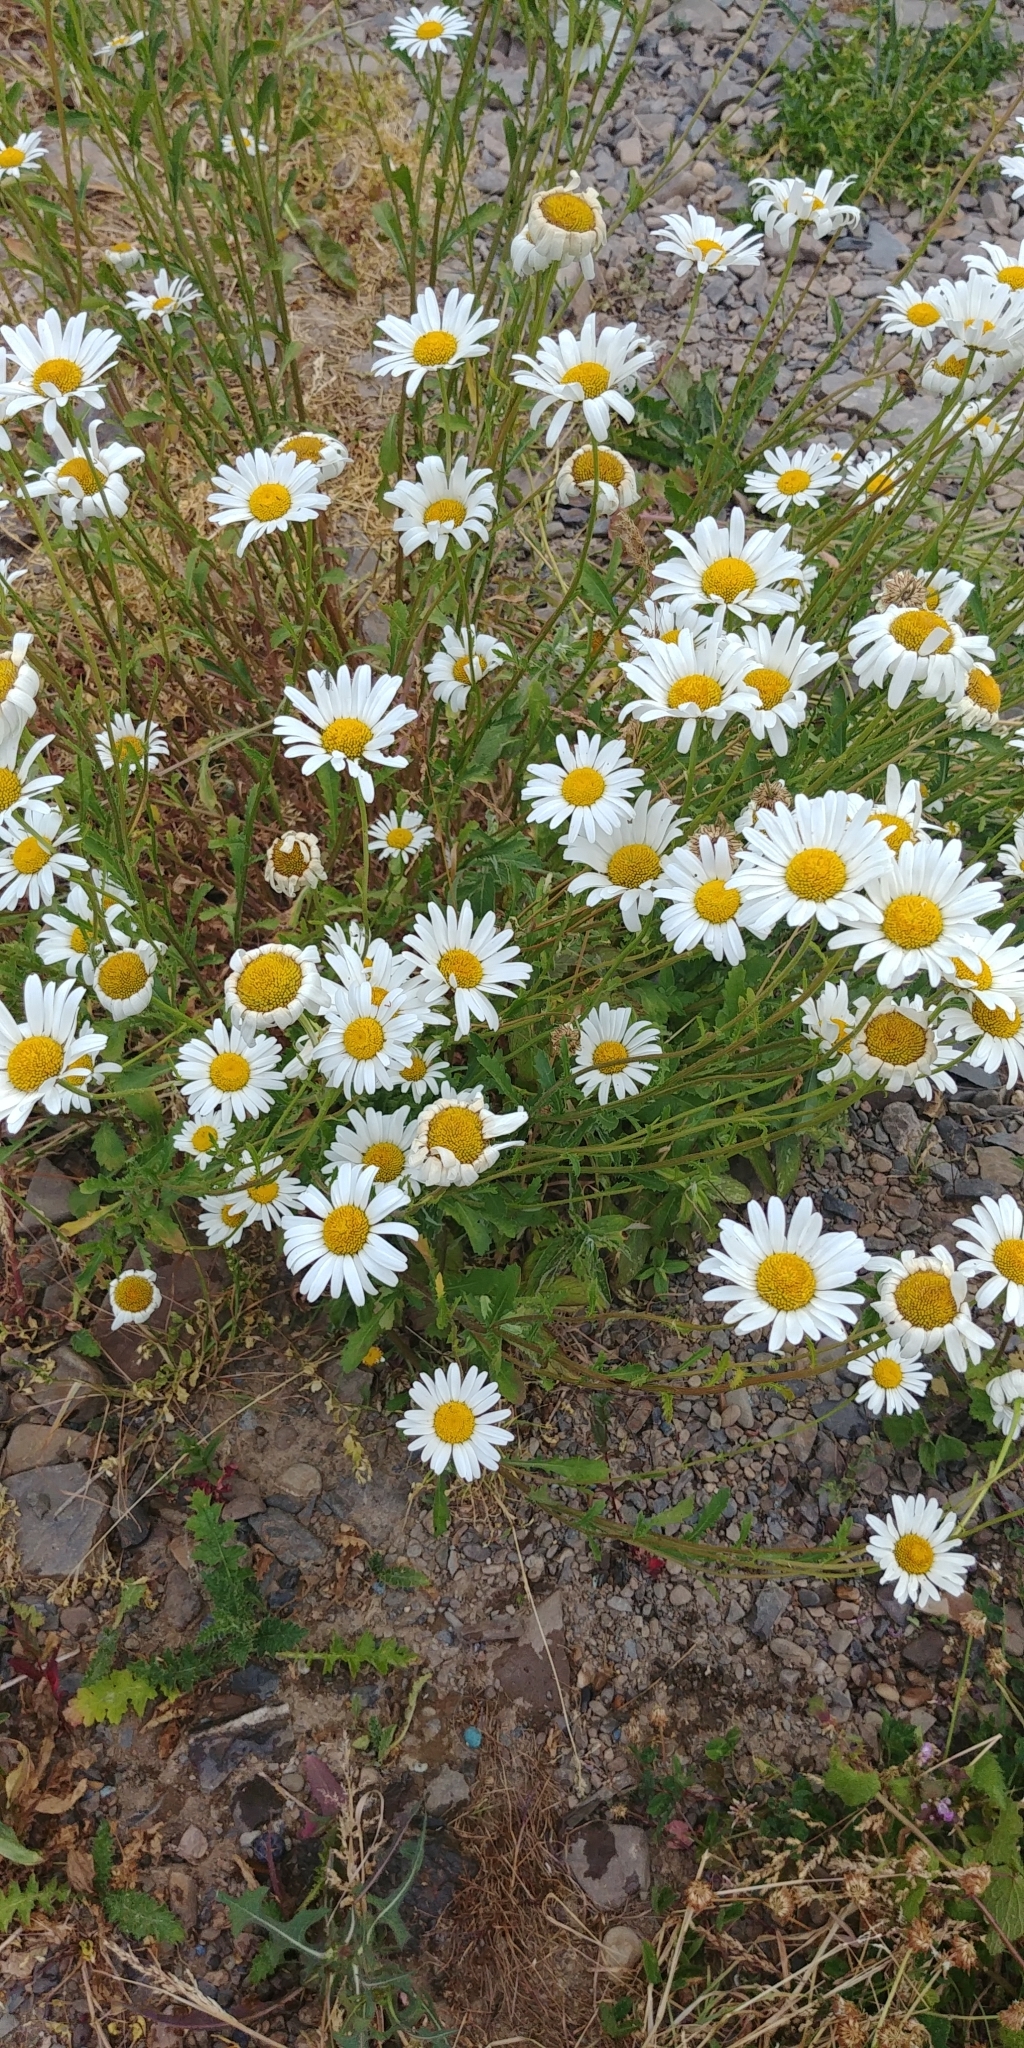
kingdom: Plantae
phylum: Tracheophyta
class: Magnoliopsida
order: Asterales
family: Asteraceae
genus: Leucanthemum
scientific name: Leucanthemum vulgare
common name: Oxeye daisy
